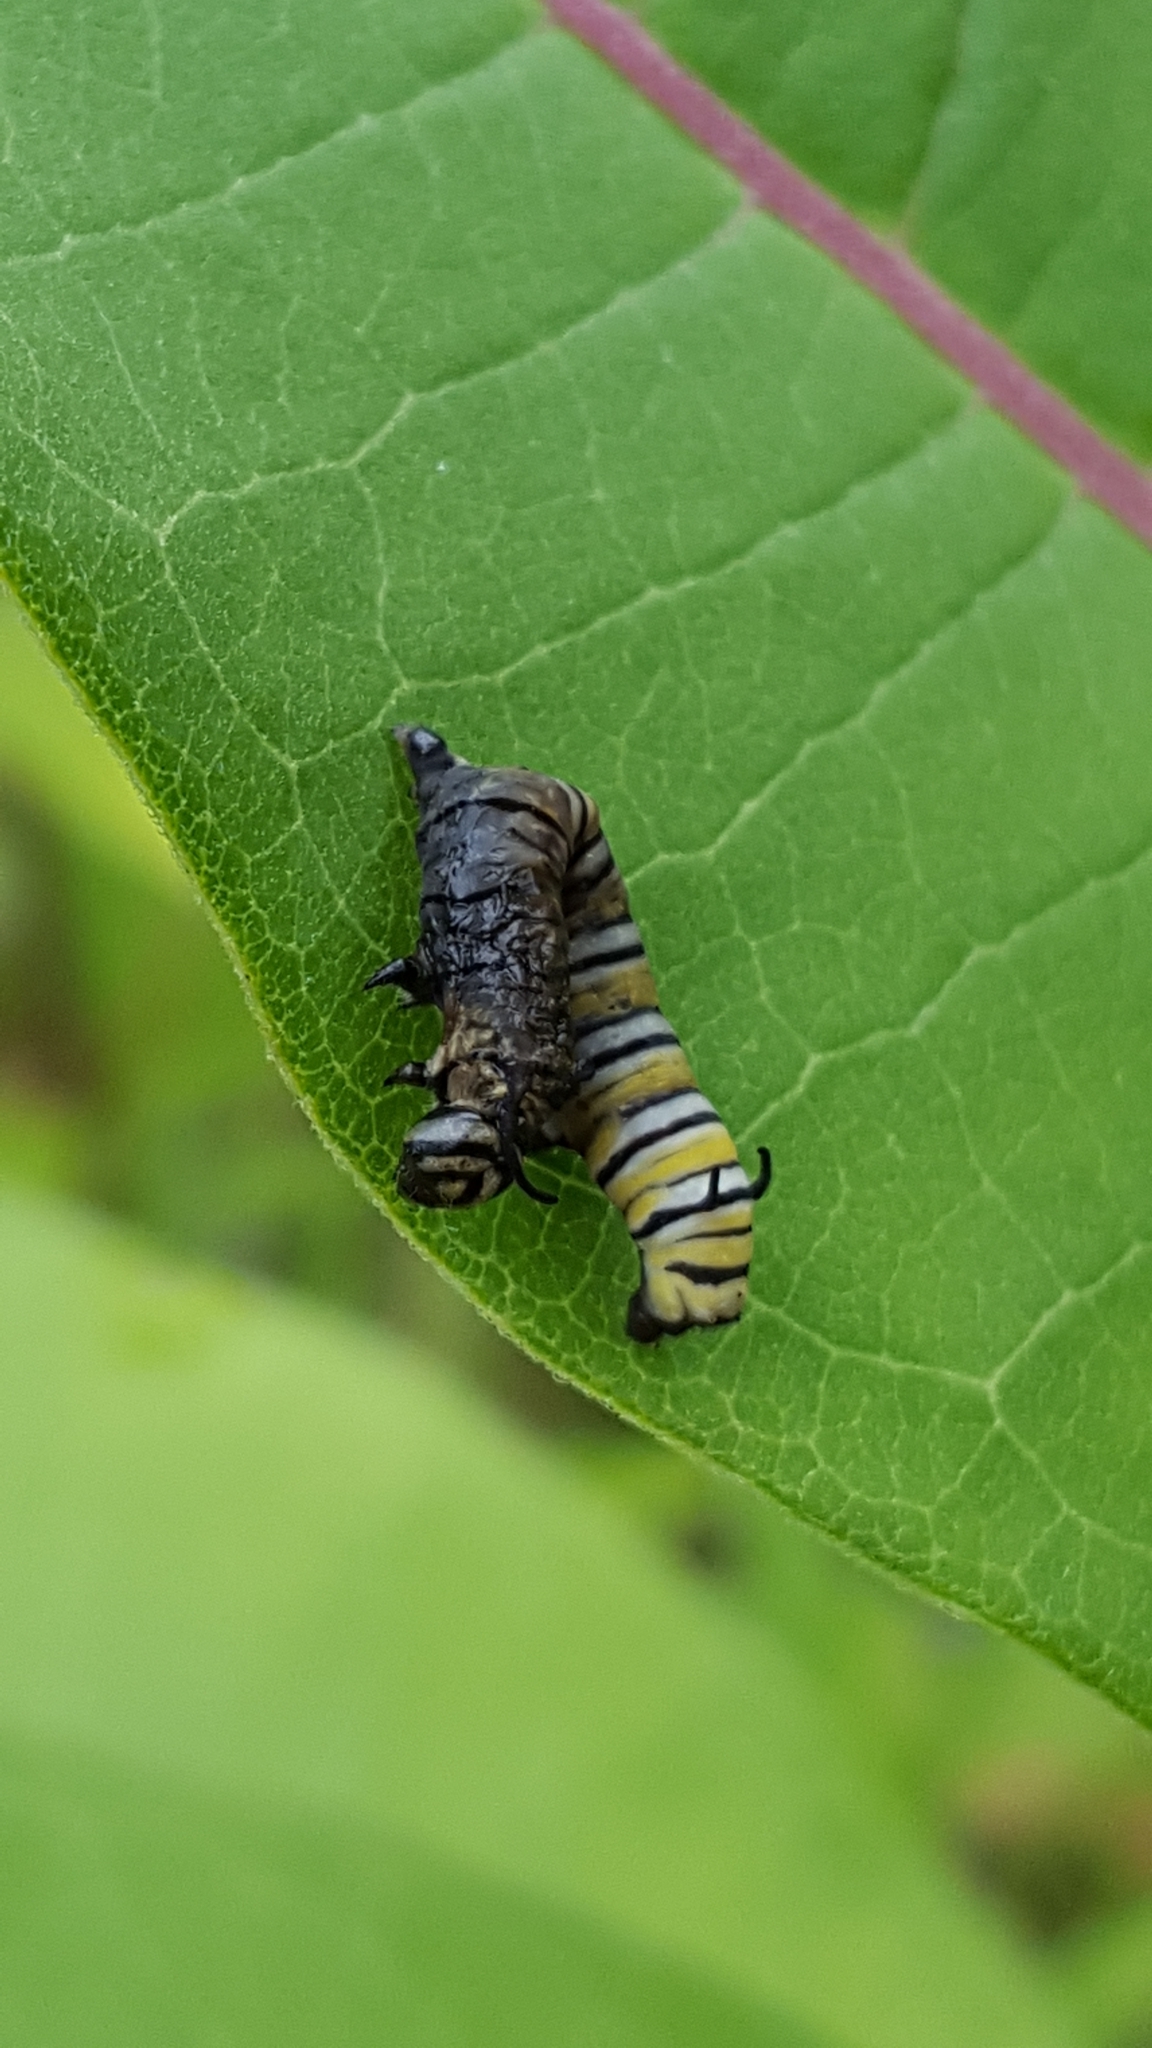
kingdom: Animalia
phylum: Arthropoda
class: Insecta
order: Lepidoptera
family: Nymphalidae
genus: Danaus
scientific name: Danaus plexippus
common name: Monarch
